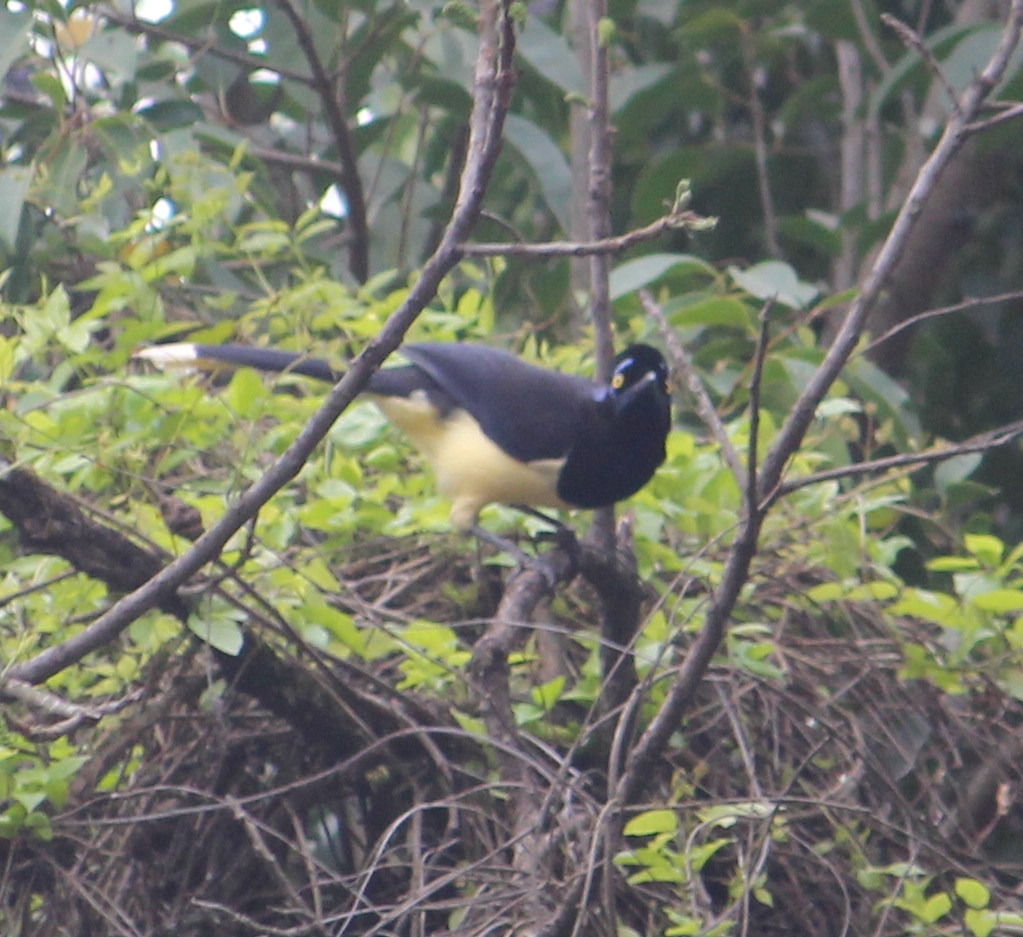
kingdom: Animalia
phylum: Chordata
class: Aves
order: Passeriformes
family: Corvidae
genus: Cyanocorax
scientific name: Cyanocorax chrysops
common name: Plush-crested jay
